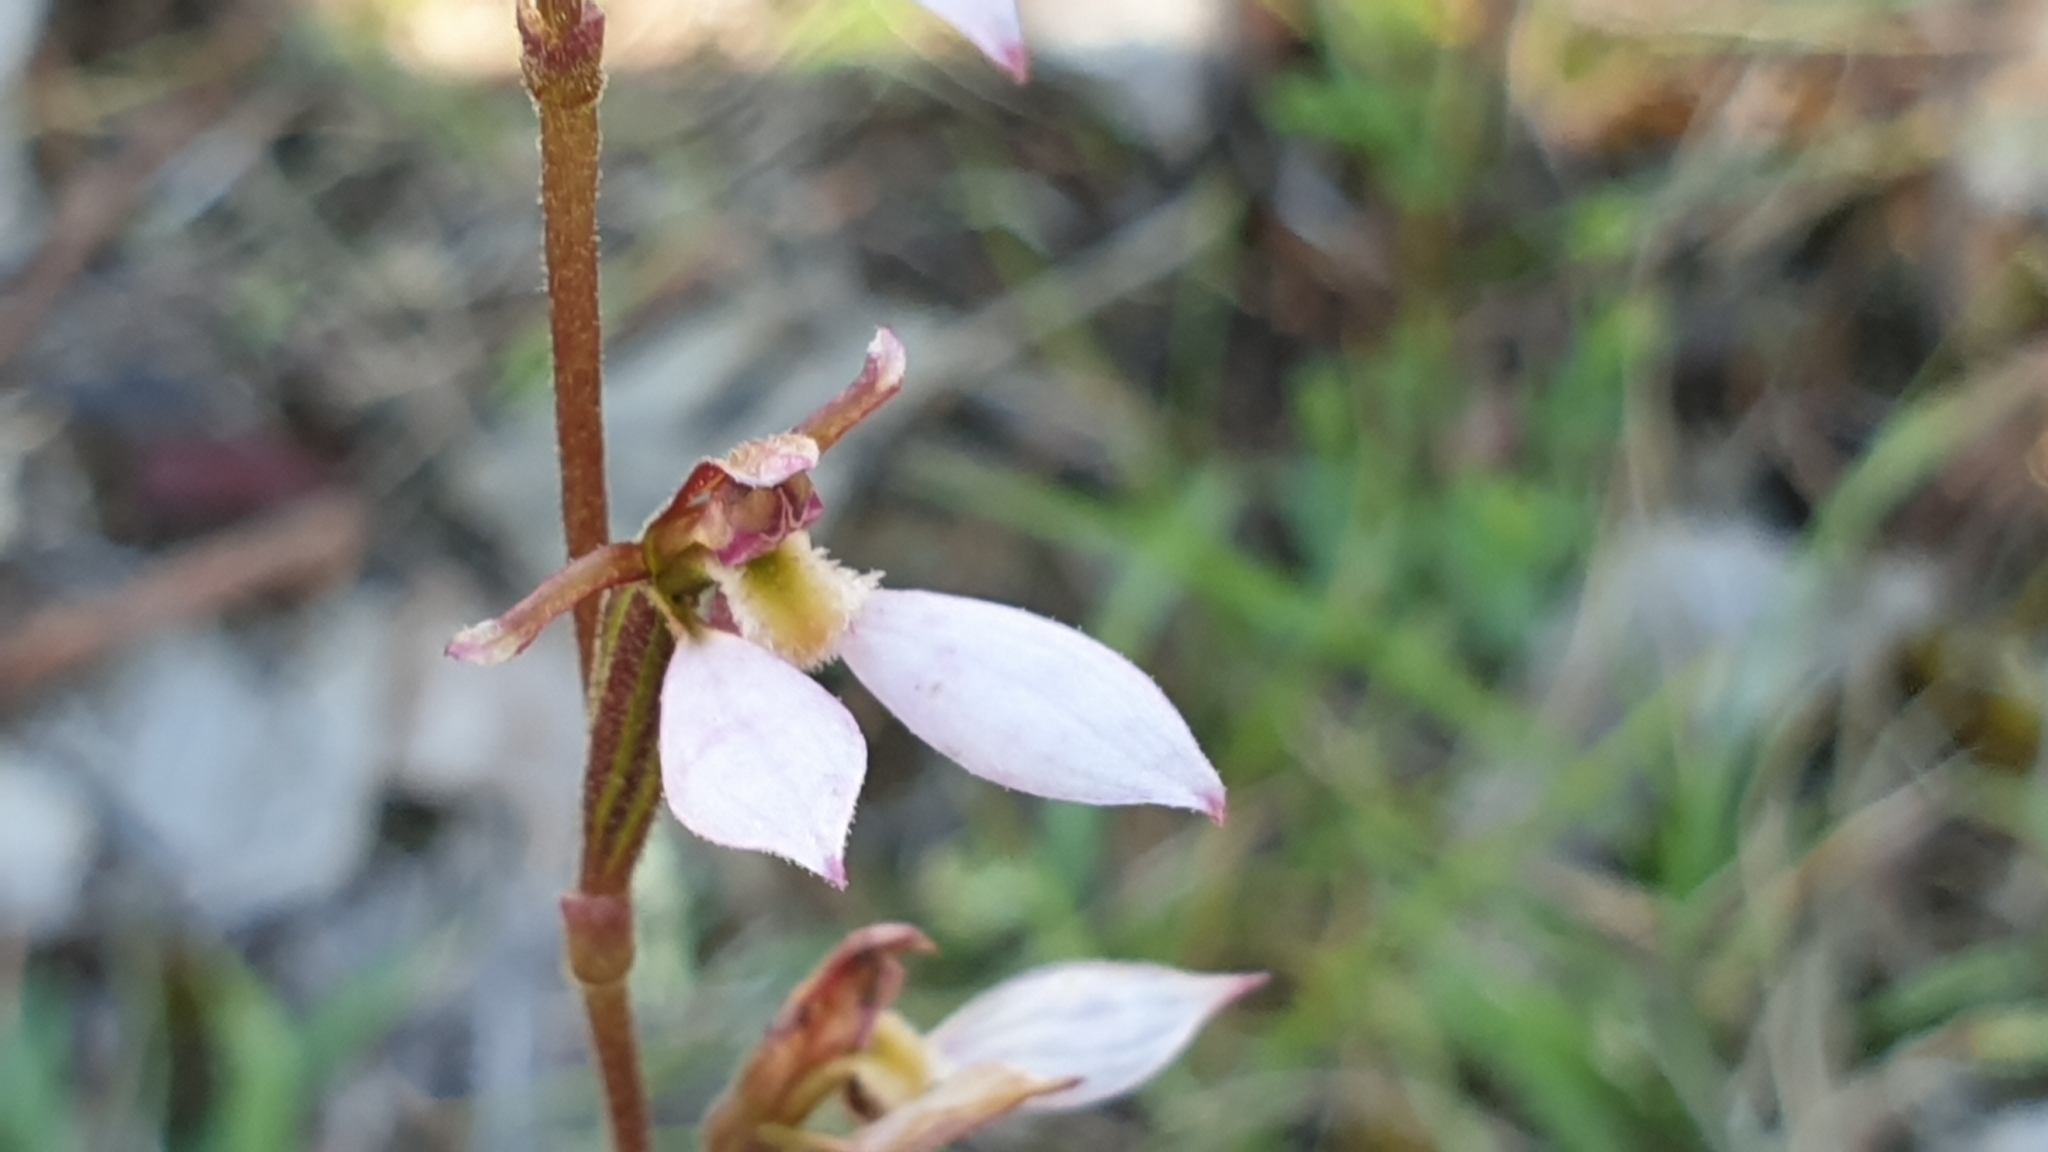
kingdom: Plantae
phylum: Tracheophyta
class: Liliopsida
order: Asparagales
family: Orchidaceae
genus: Eriochilus
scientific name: Eriochilus cucullatus
